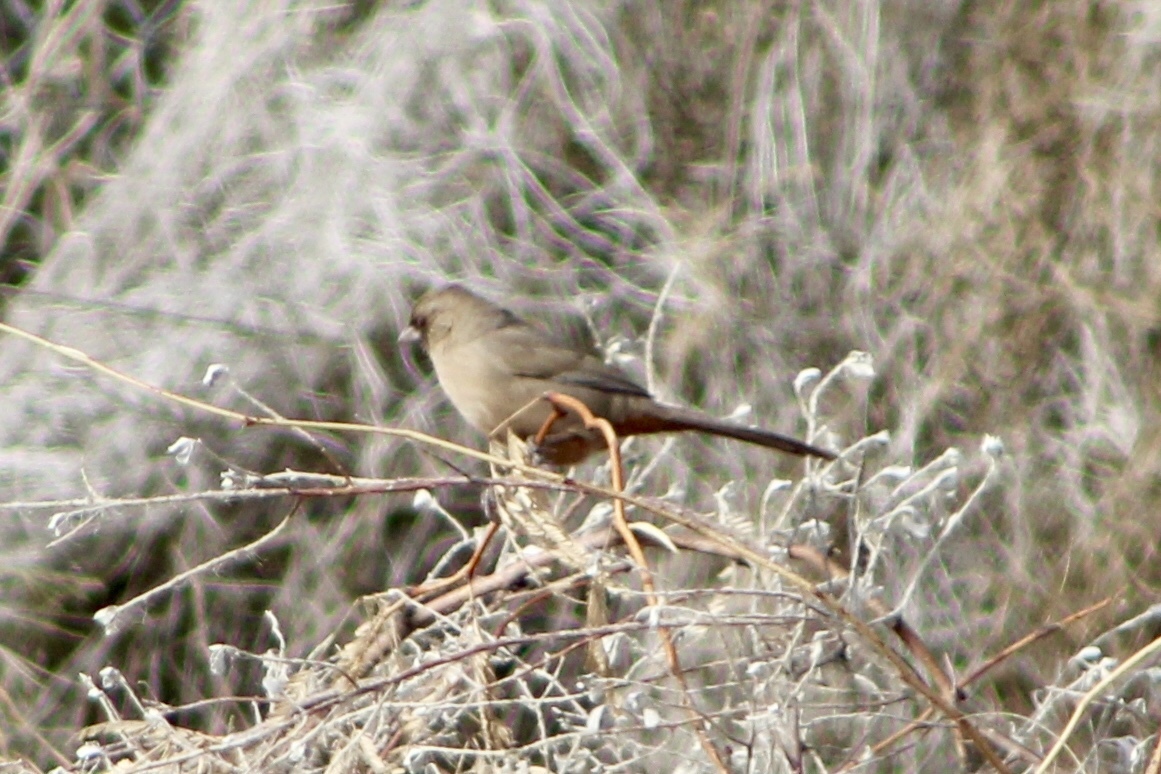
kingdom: Animalia
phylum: Chordata
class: Aves
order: Passeriformes
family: Passerellidae
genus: Melozone
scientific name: Melozone aberti
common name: Abert's towhee
